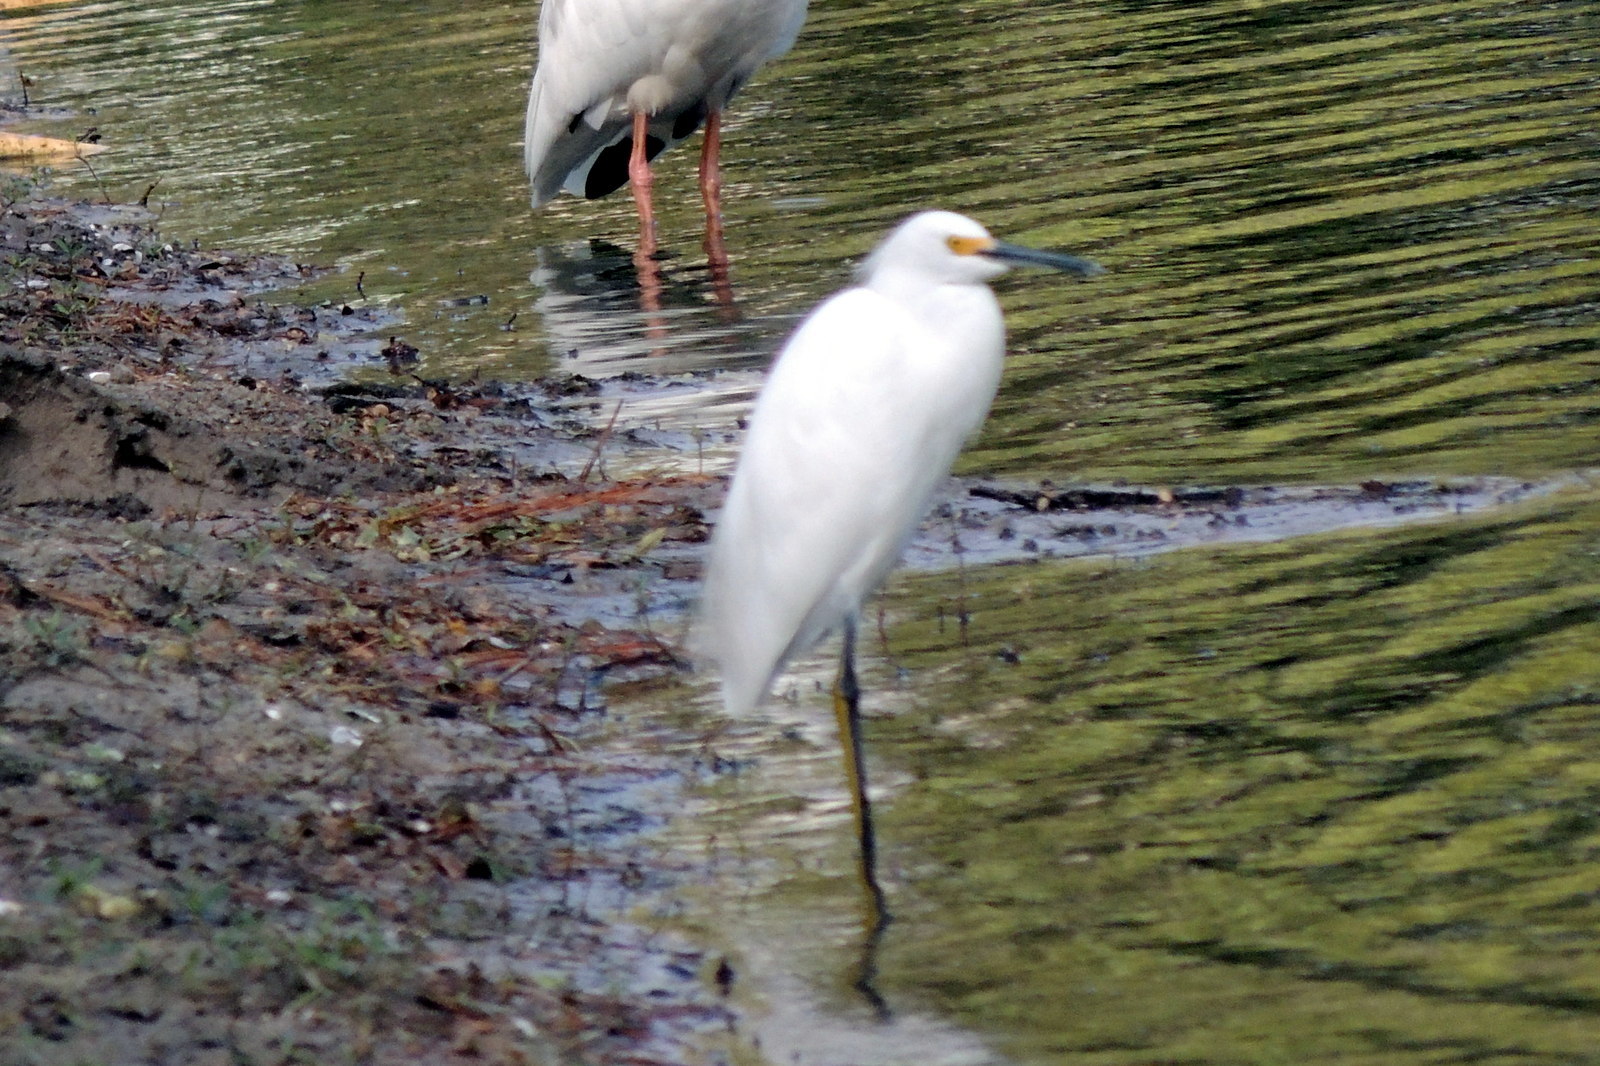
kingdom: Animalia
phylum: Chordata
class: Aves
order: Pelecaniformes
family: Ardeidae
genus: Egretta
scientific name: Egretta thula
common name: Snowy egret
